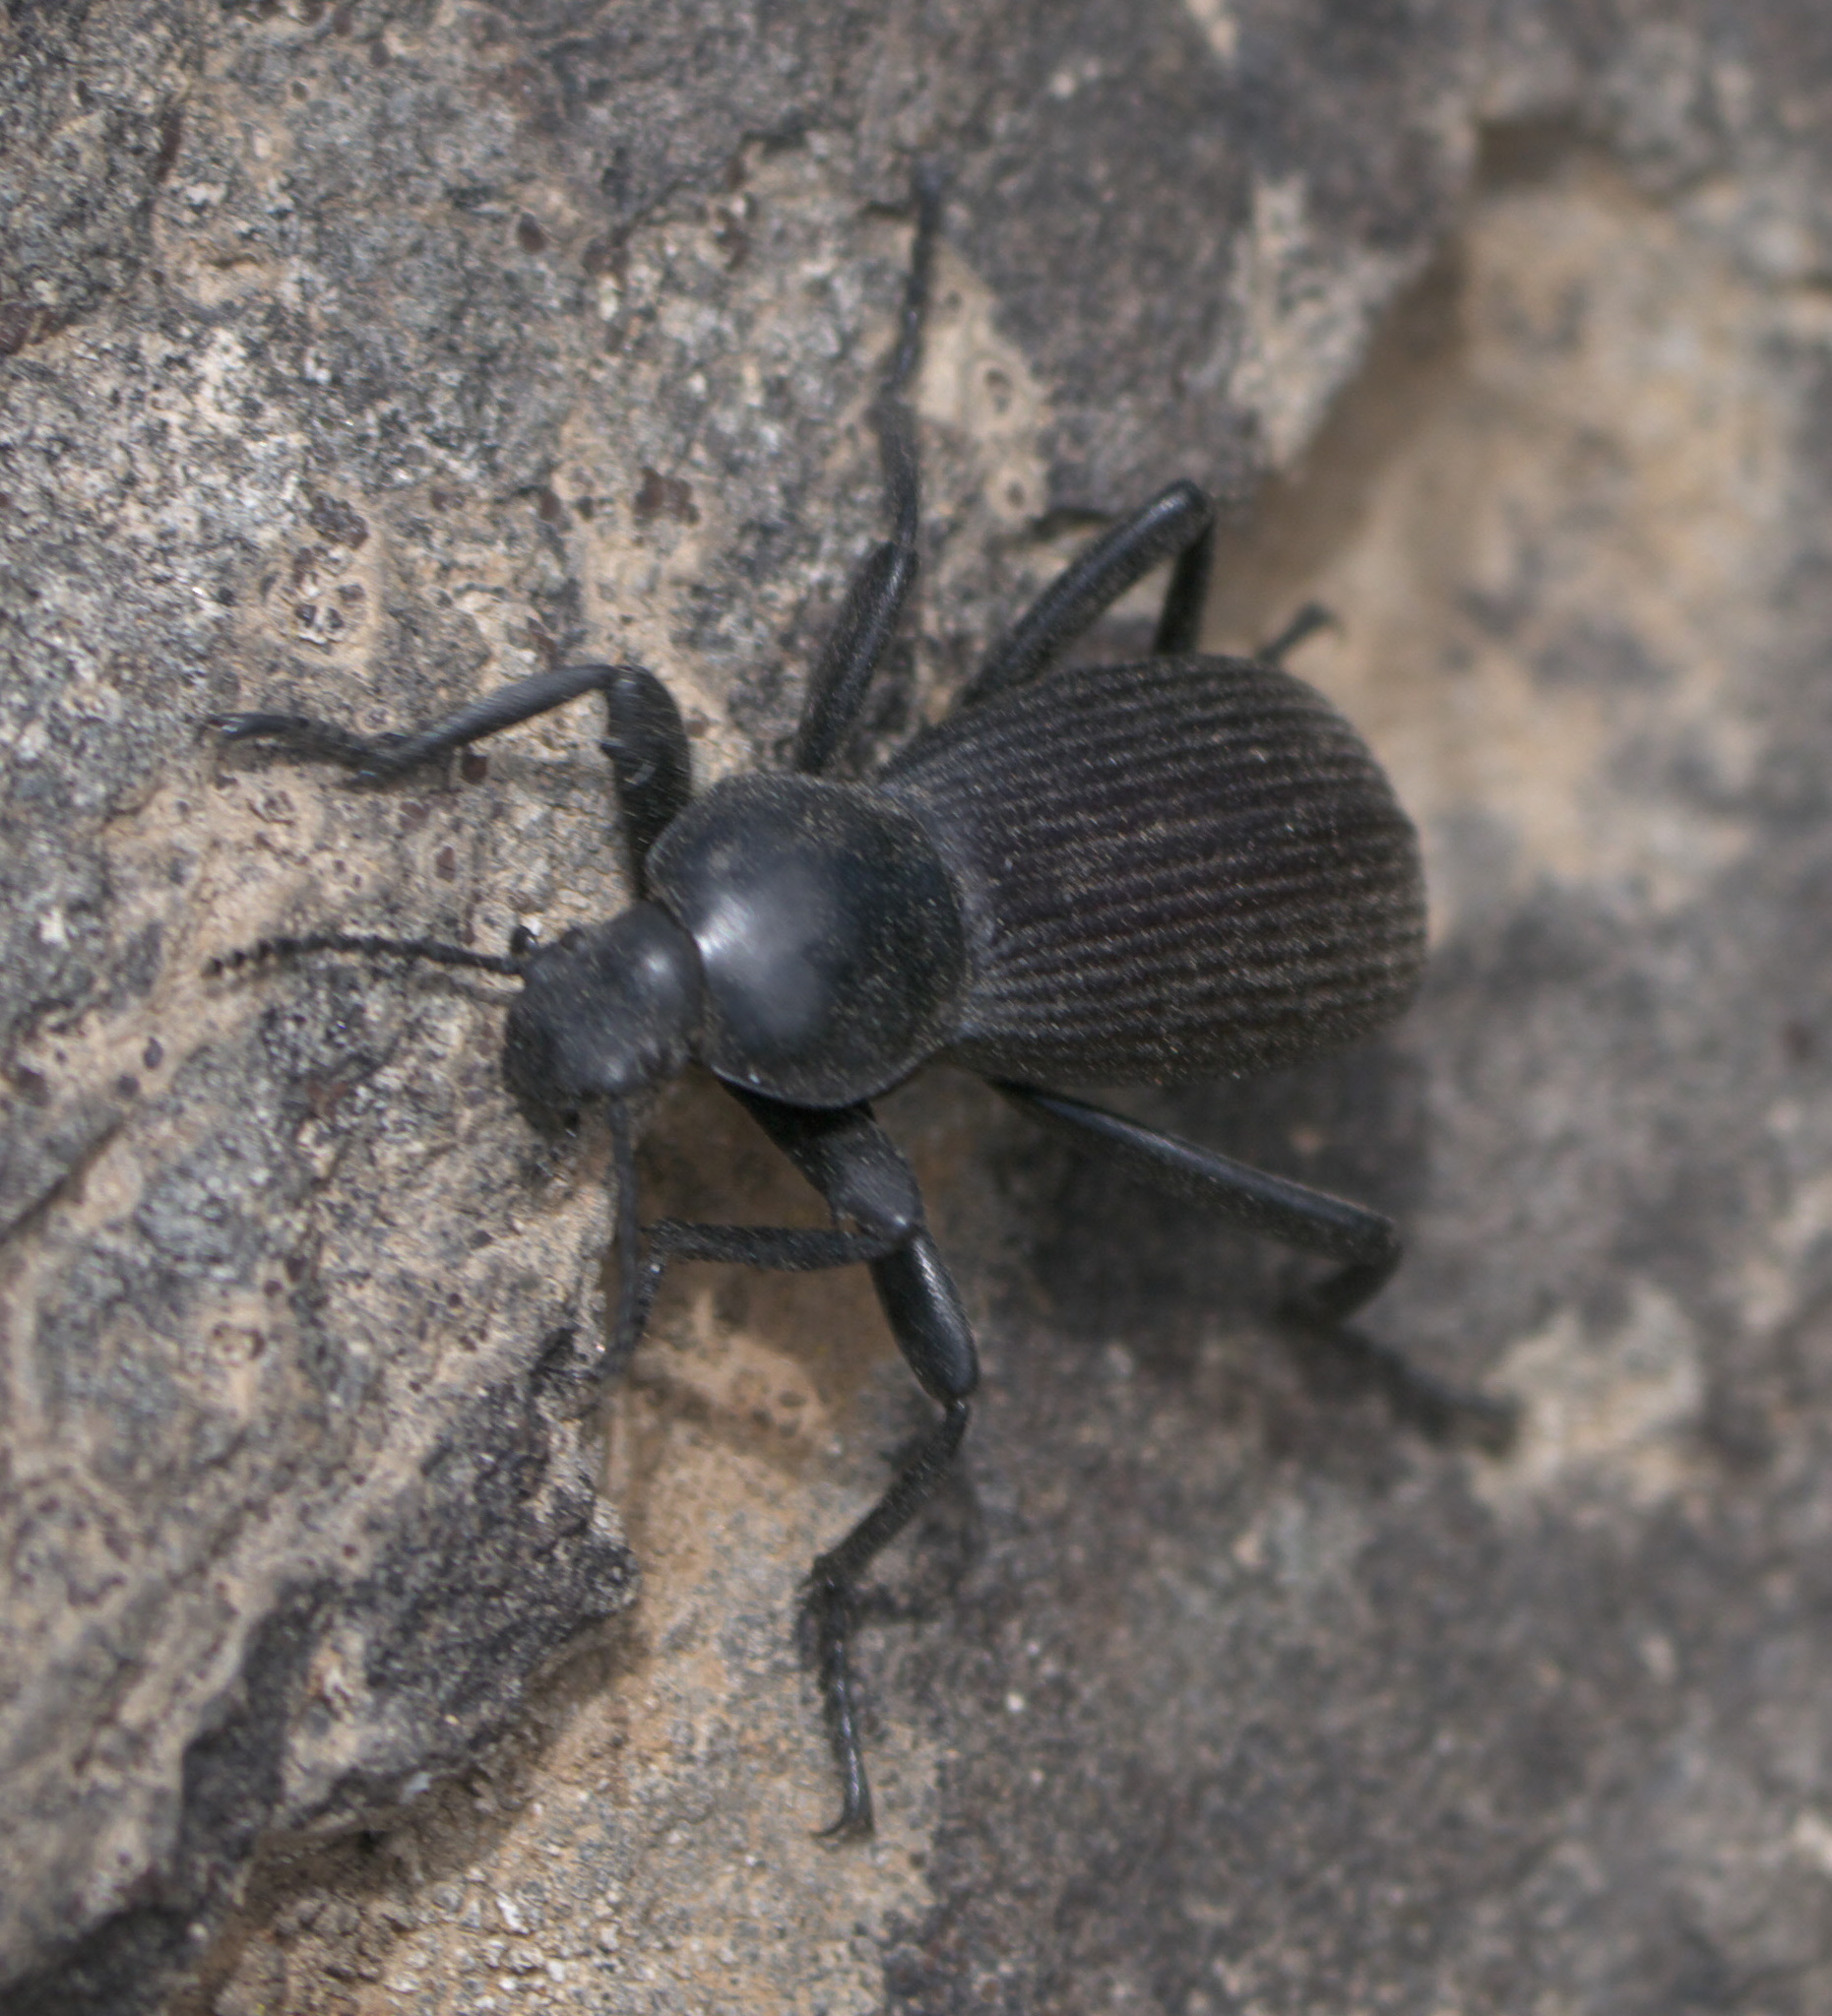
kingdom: Animalia
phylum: Arthropoda
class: Insecta
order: Coleoptera
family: Tenebrionidae
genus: Eleodes
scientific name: Eleodes obscura
